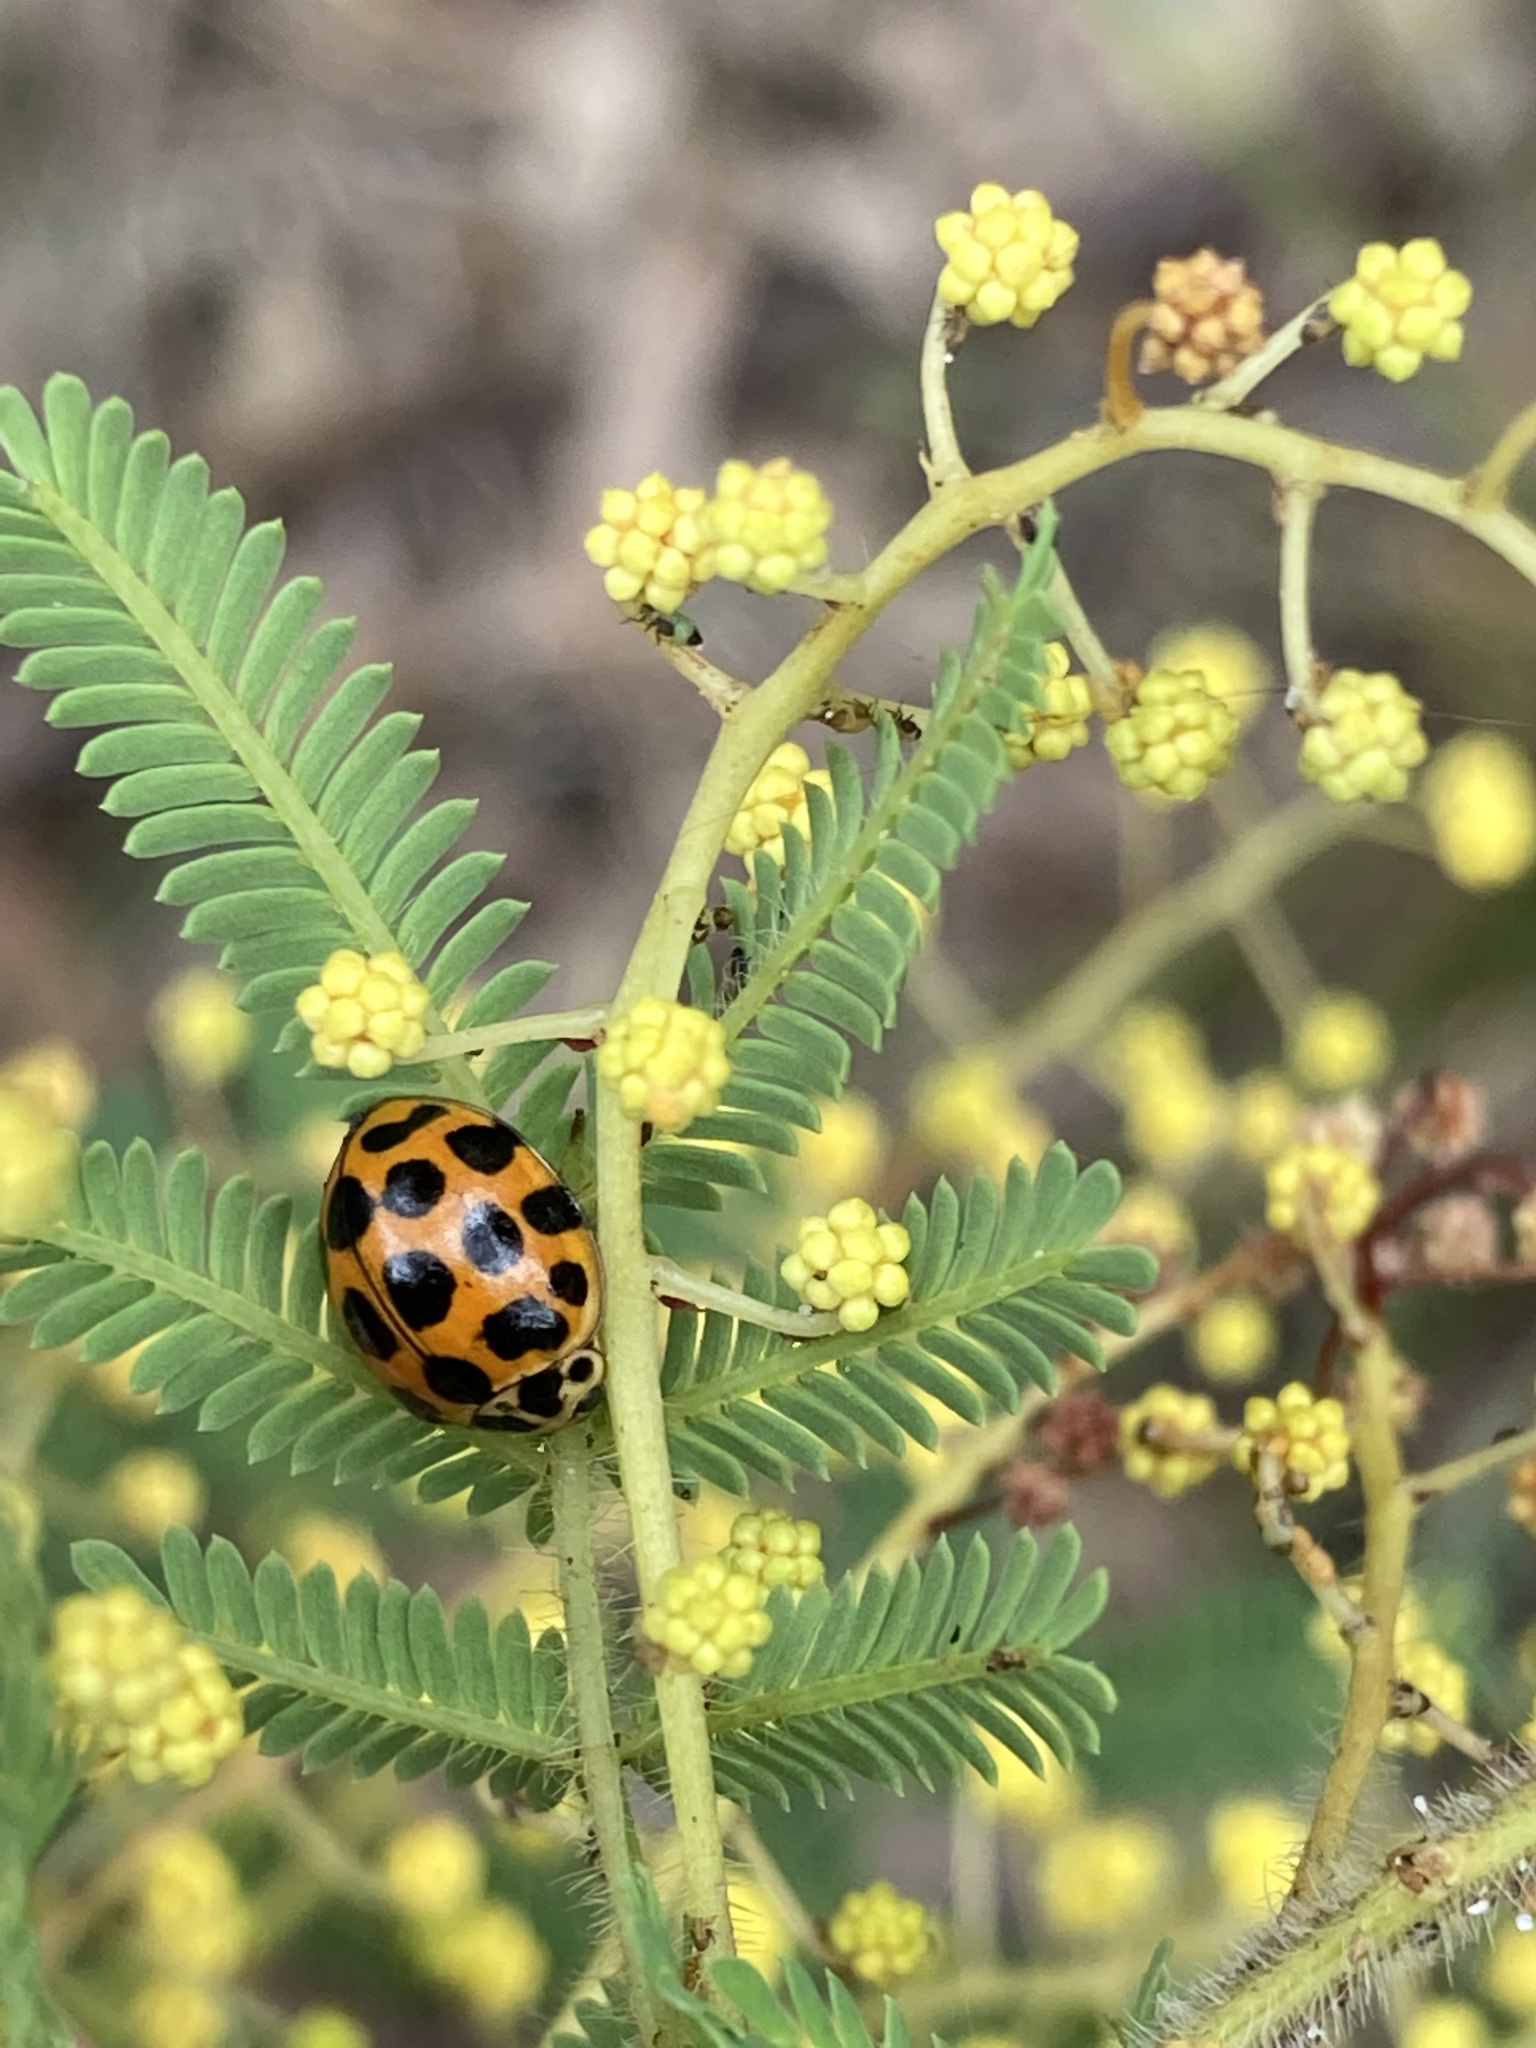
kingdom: Animalia
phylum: Arthropoda
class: Insecta
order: Coleoptera
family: Coccinellidae
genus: Harmonia
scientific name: Harmonia conformis
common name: Common spotted ladybird beetle
